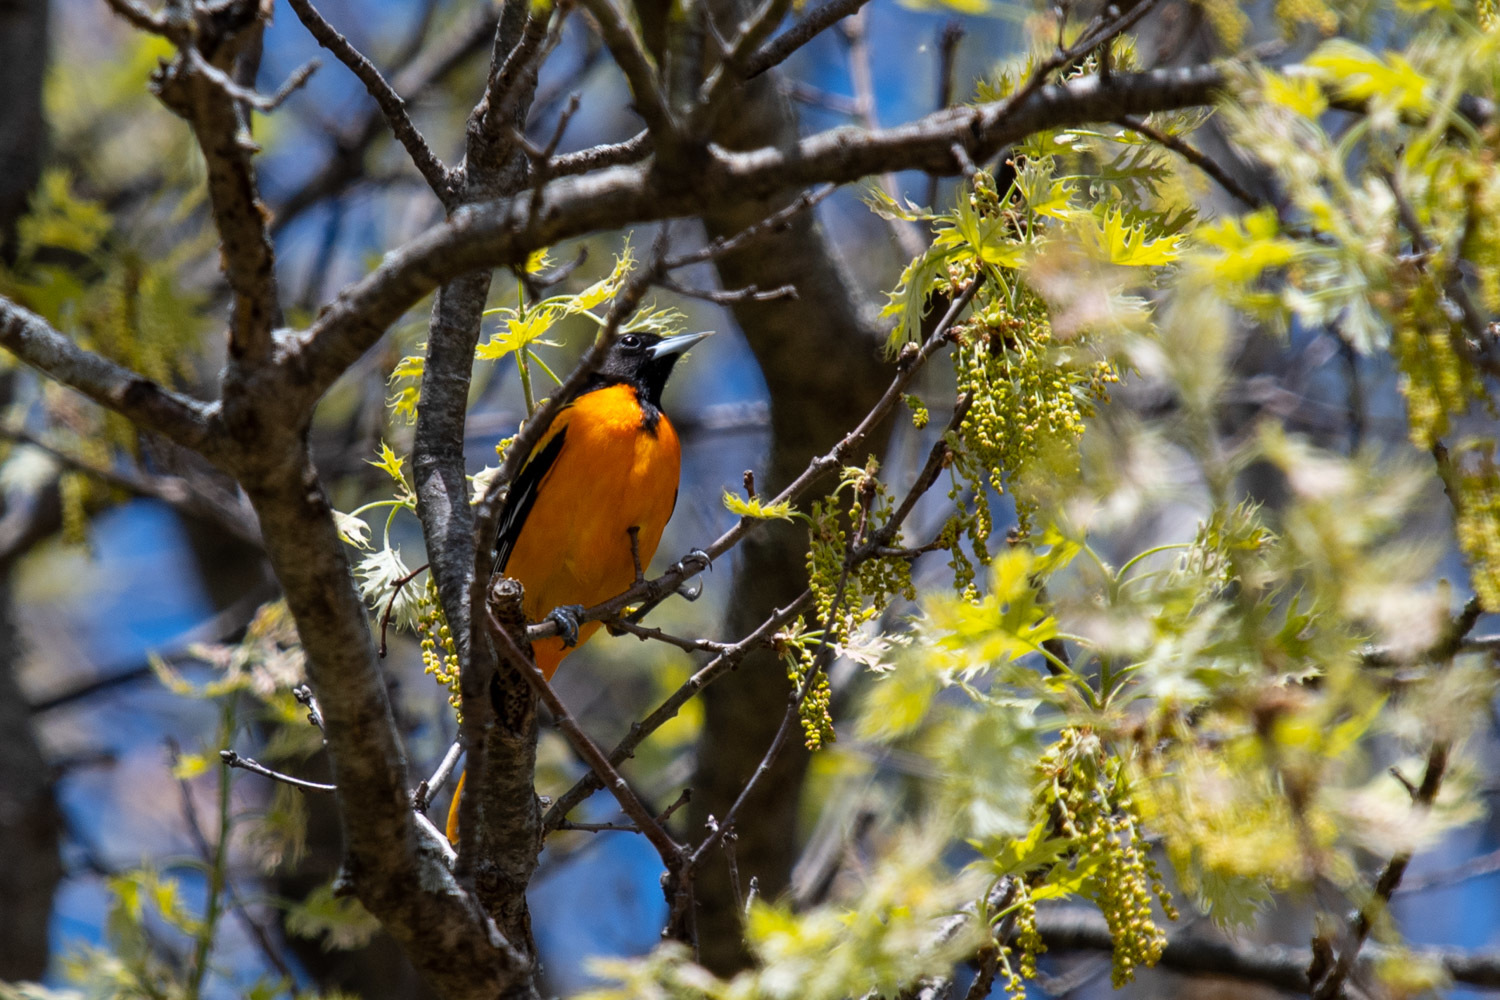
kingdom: Animalia
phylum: Chordata
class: Aves
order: Passeriformes
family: Icteridae
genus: Icterus
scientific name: Icterus galbula
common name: Baltimore oriole
